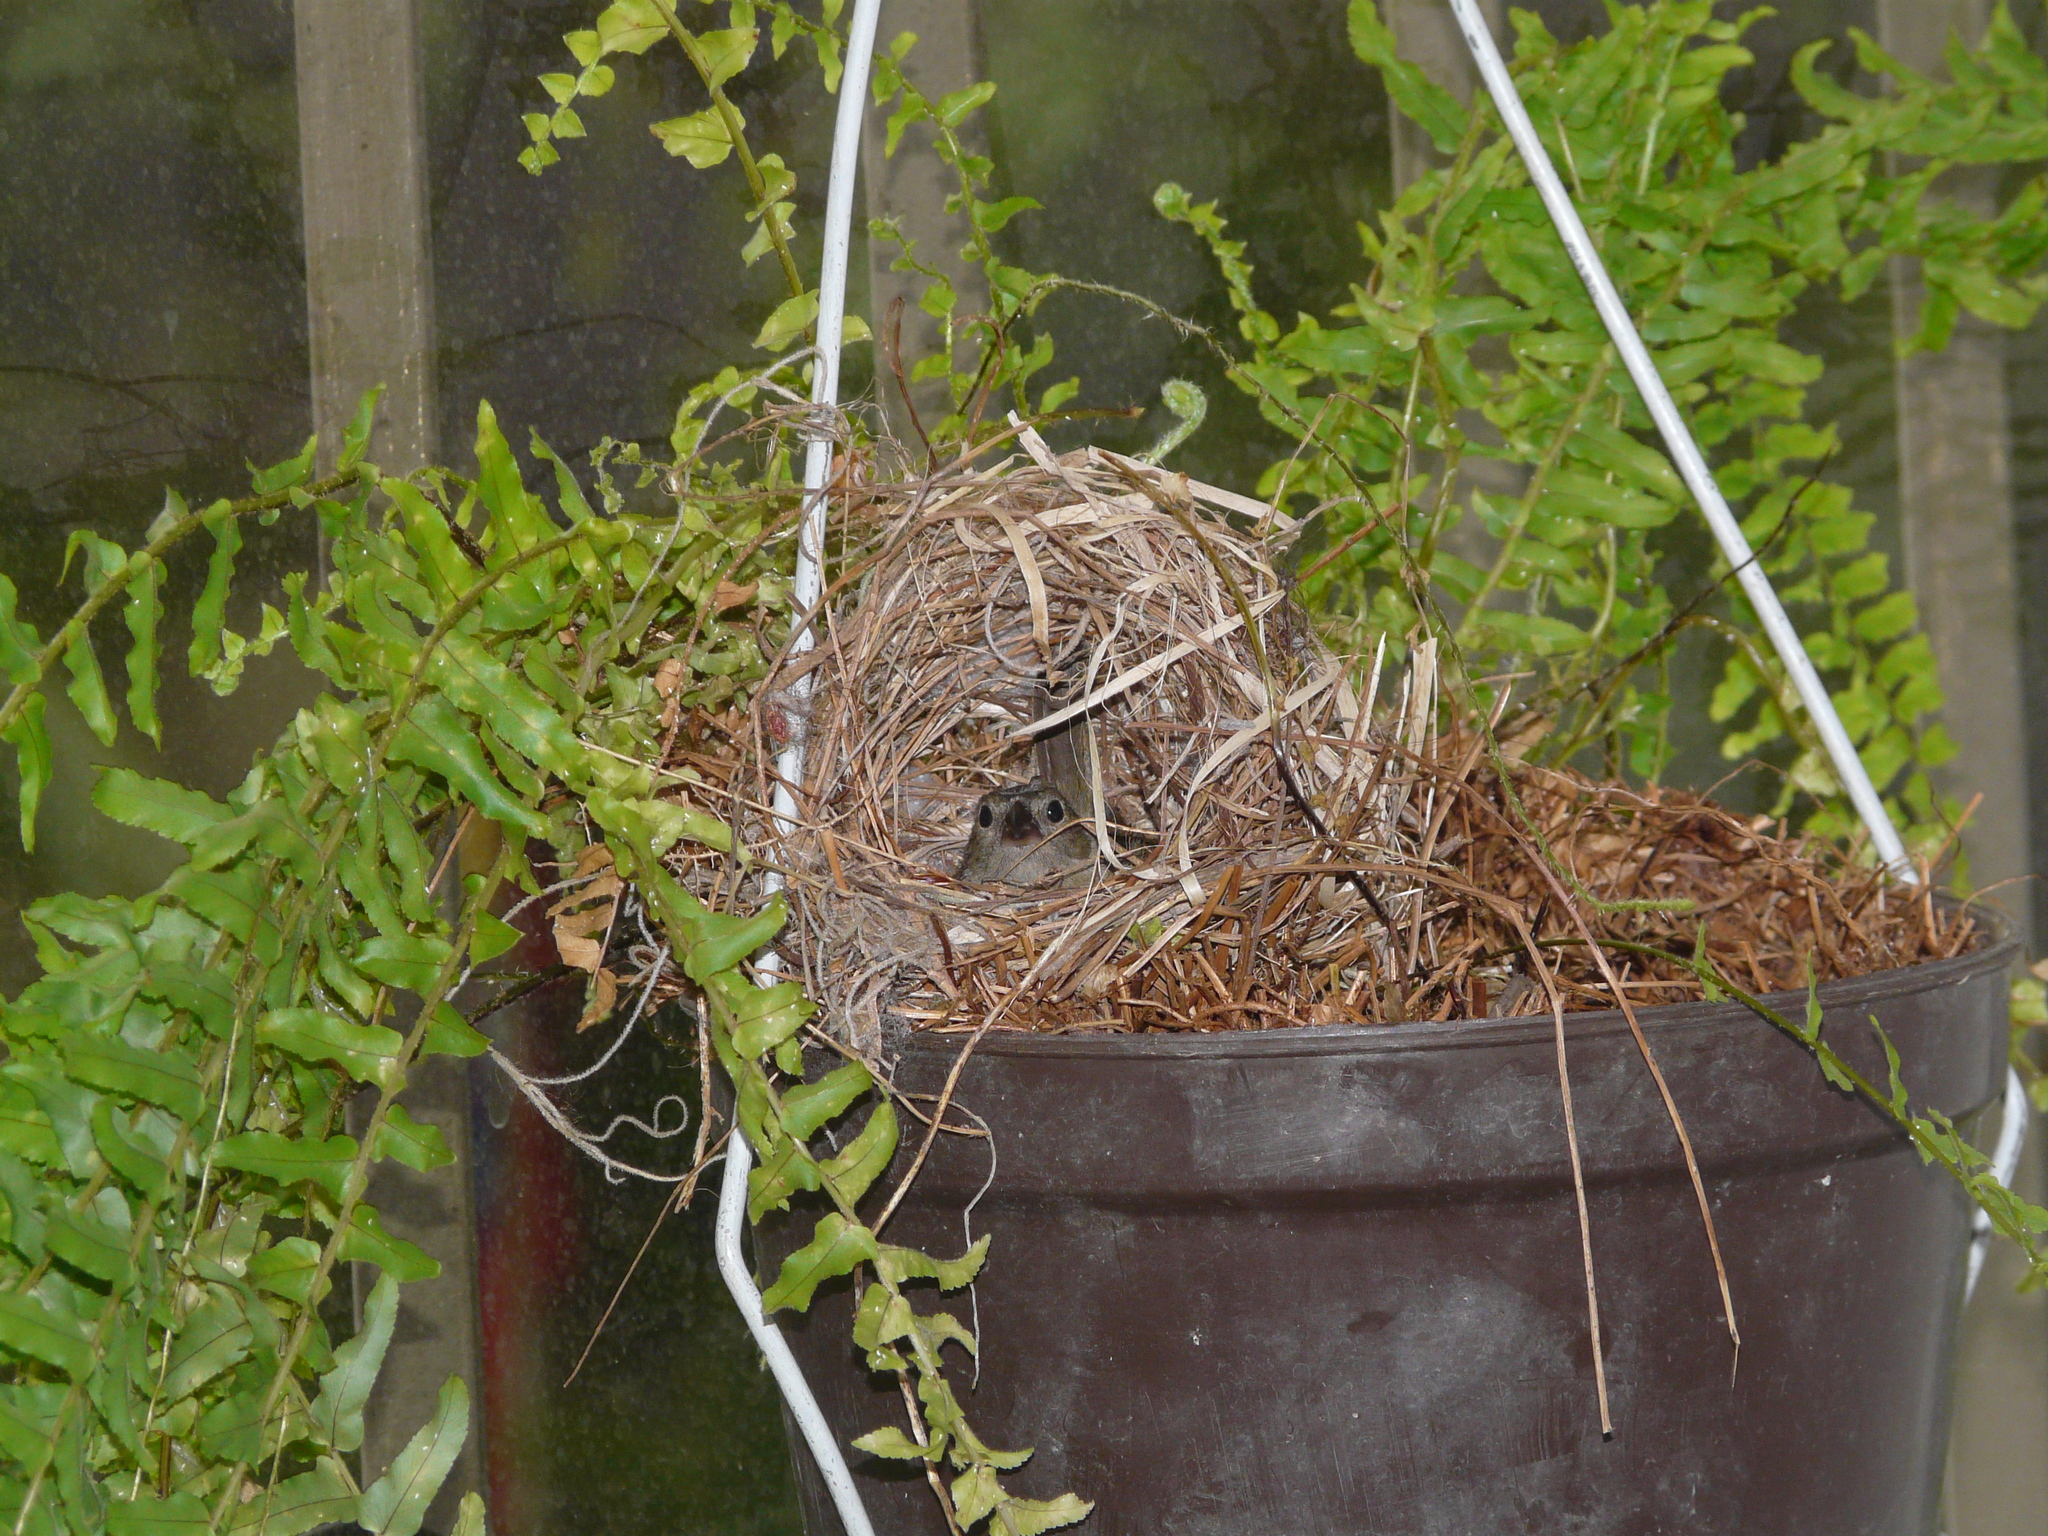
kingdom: Animalia
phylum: Chordata
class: Aves
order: Passeriformes
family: Thraupidae
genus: Melanospiza
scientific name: Melanospiza bicolor
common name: Black-faced grassquit
